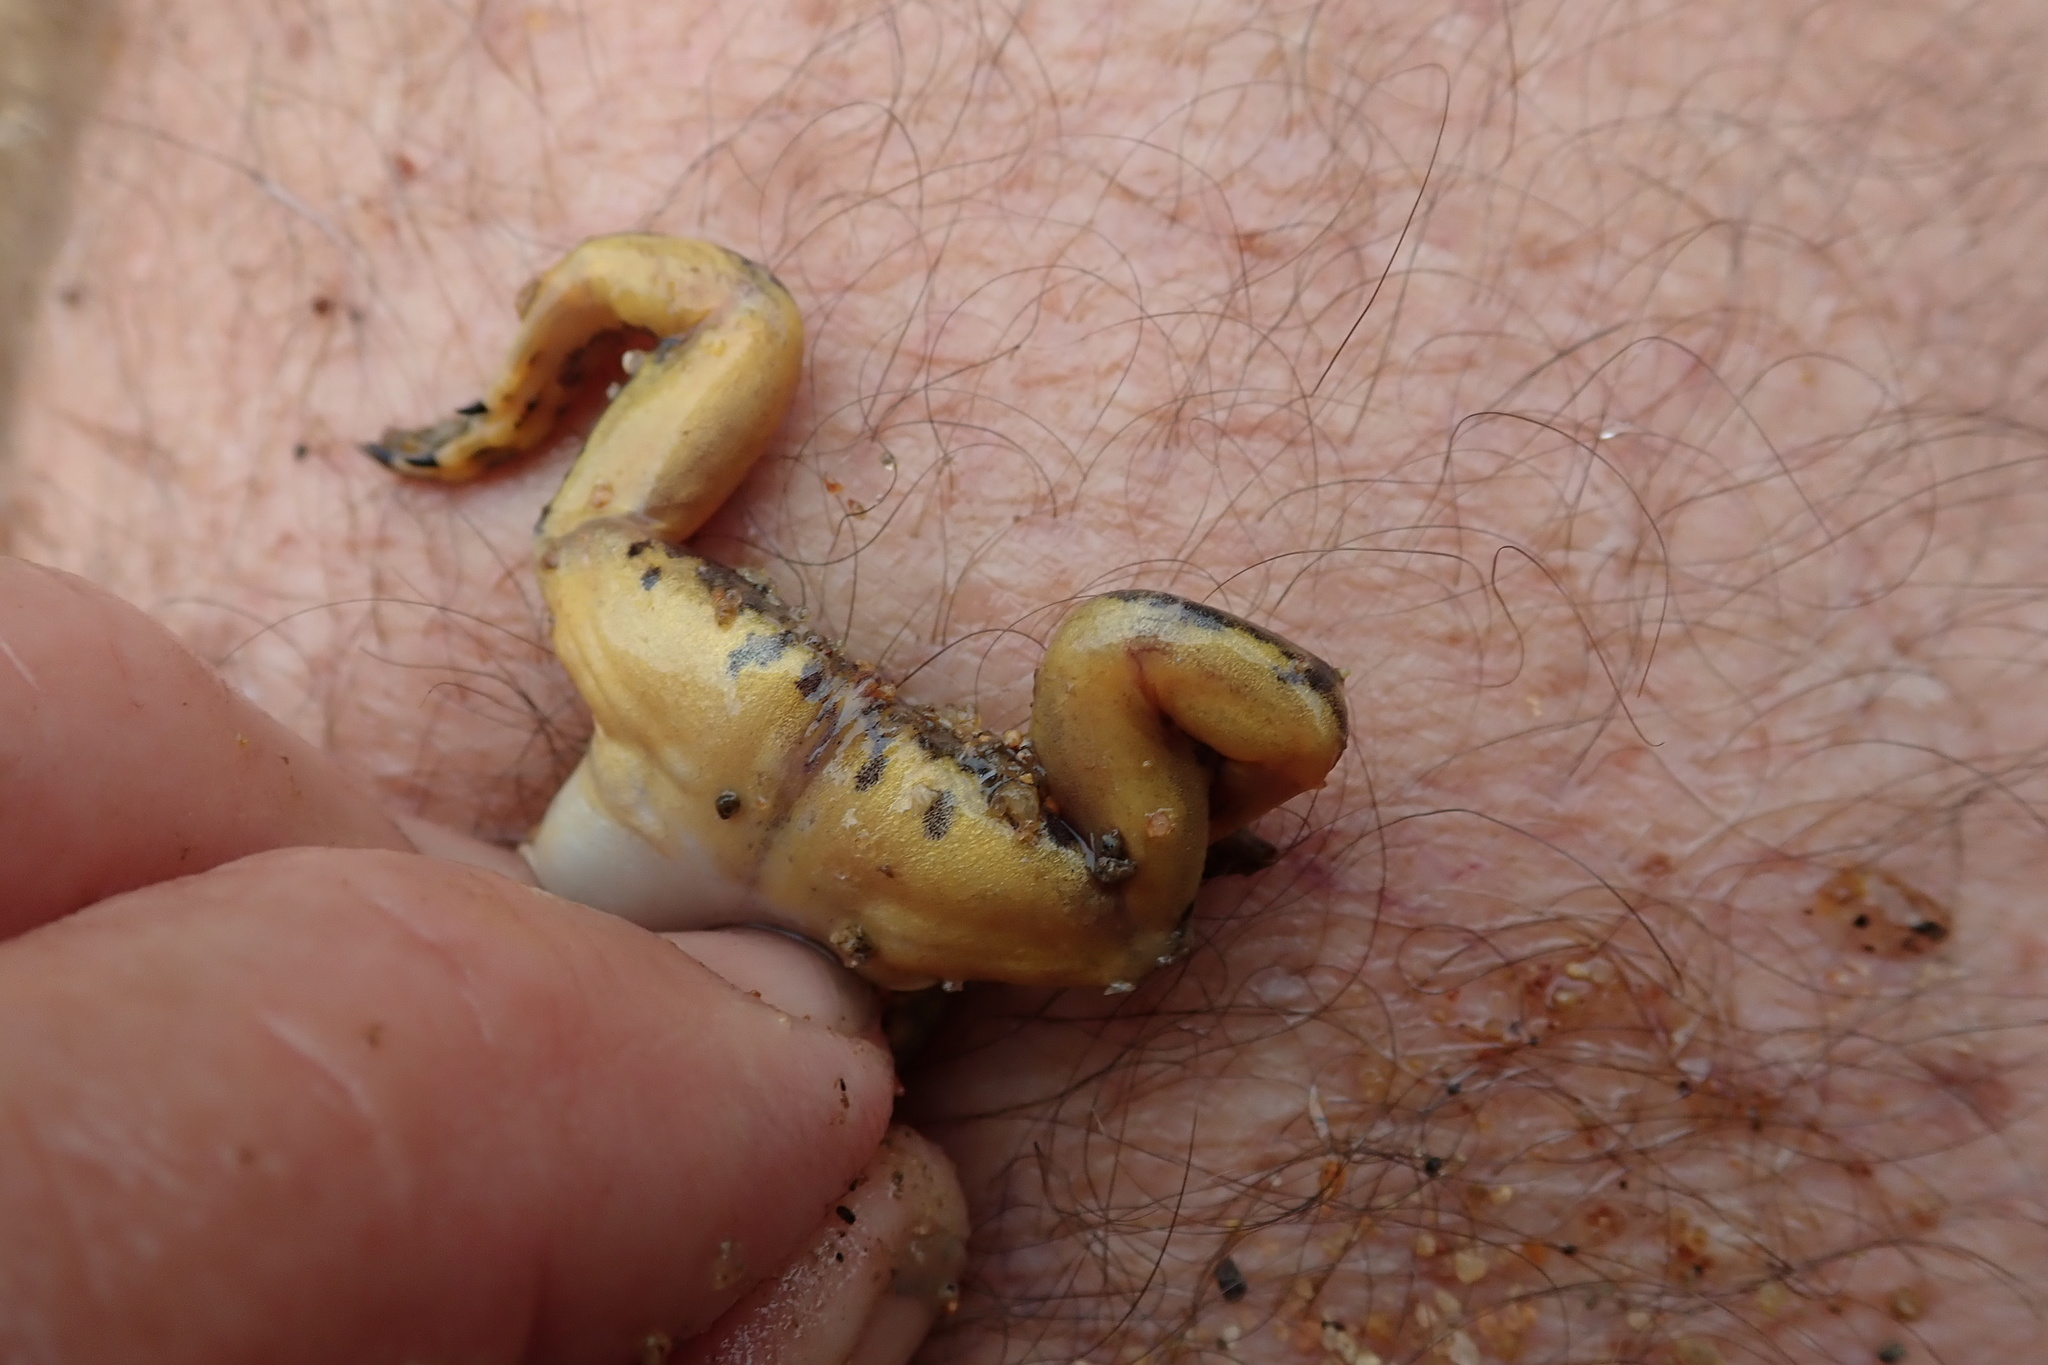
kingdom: Animalia
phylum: Chordata
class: Amphibia
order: Anura
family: Pipidae
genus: Xenopus
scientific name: Xenopus muelleri
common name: Muller's clawed frog
